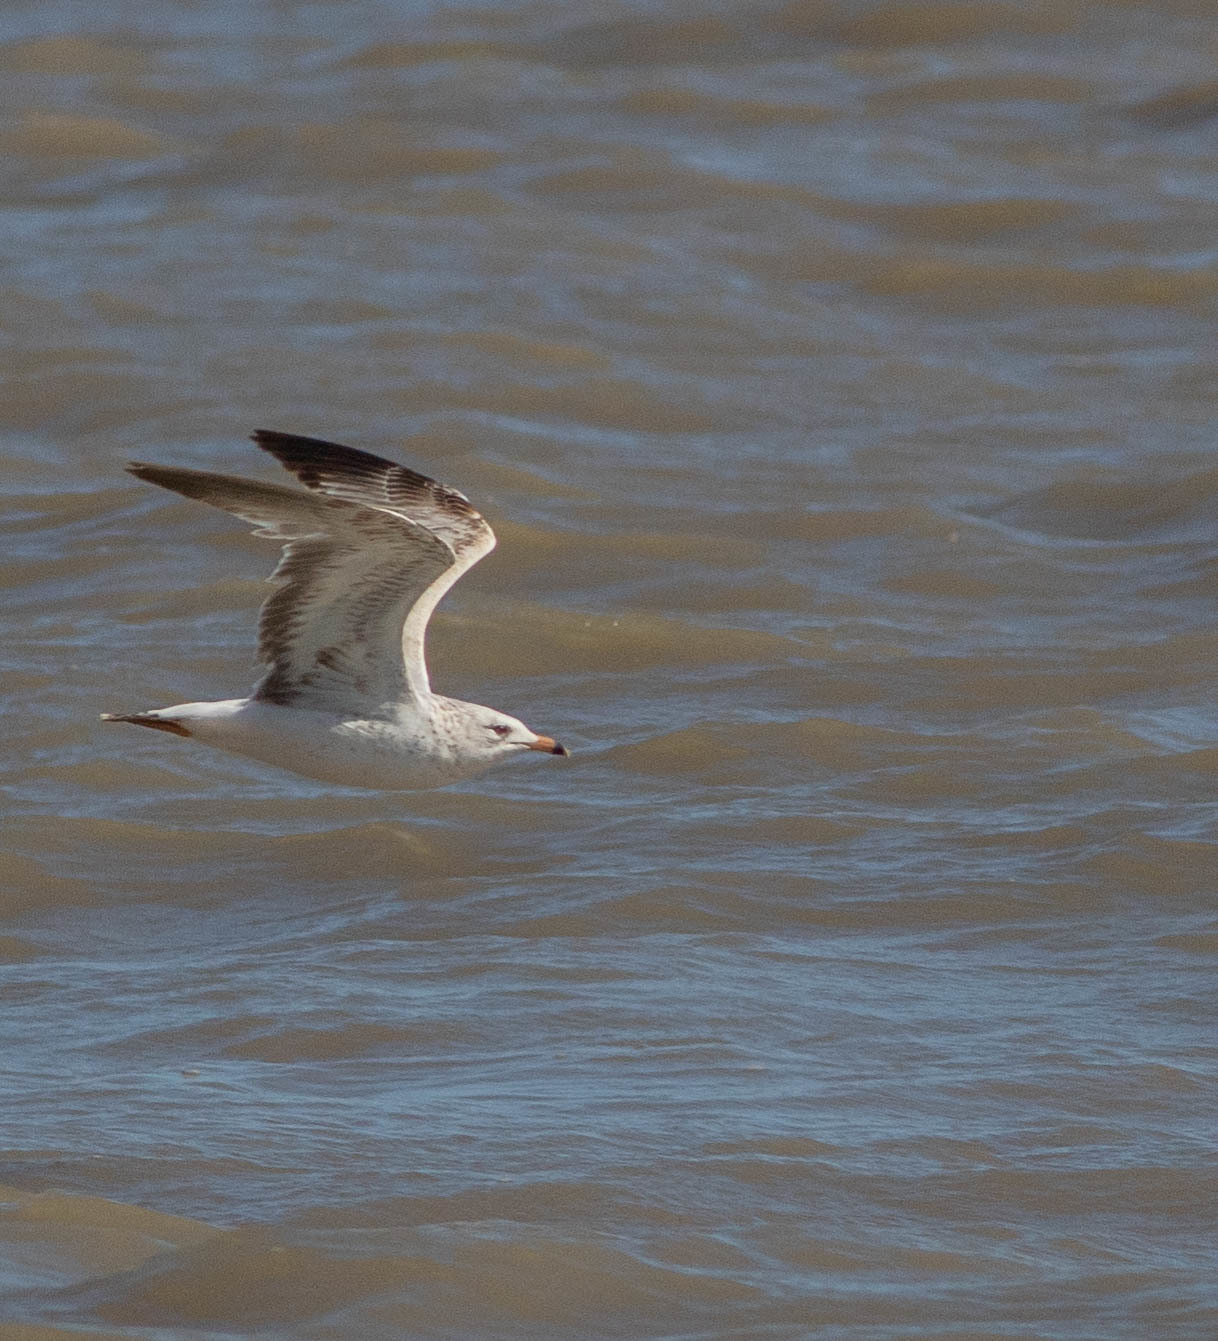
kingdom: Animalia
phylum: Chordata
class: Aves
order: Charadriiformes
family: Laridae
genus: Larus
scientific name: Larus delawarensis
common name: Ring-billed gull
